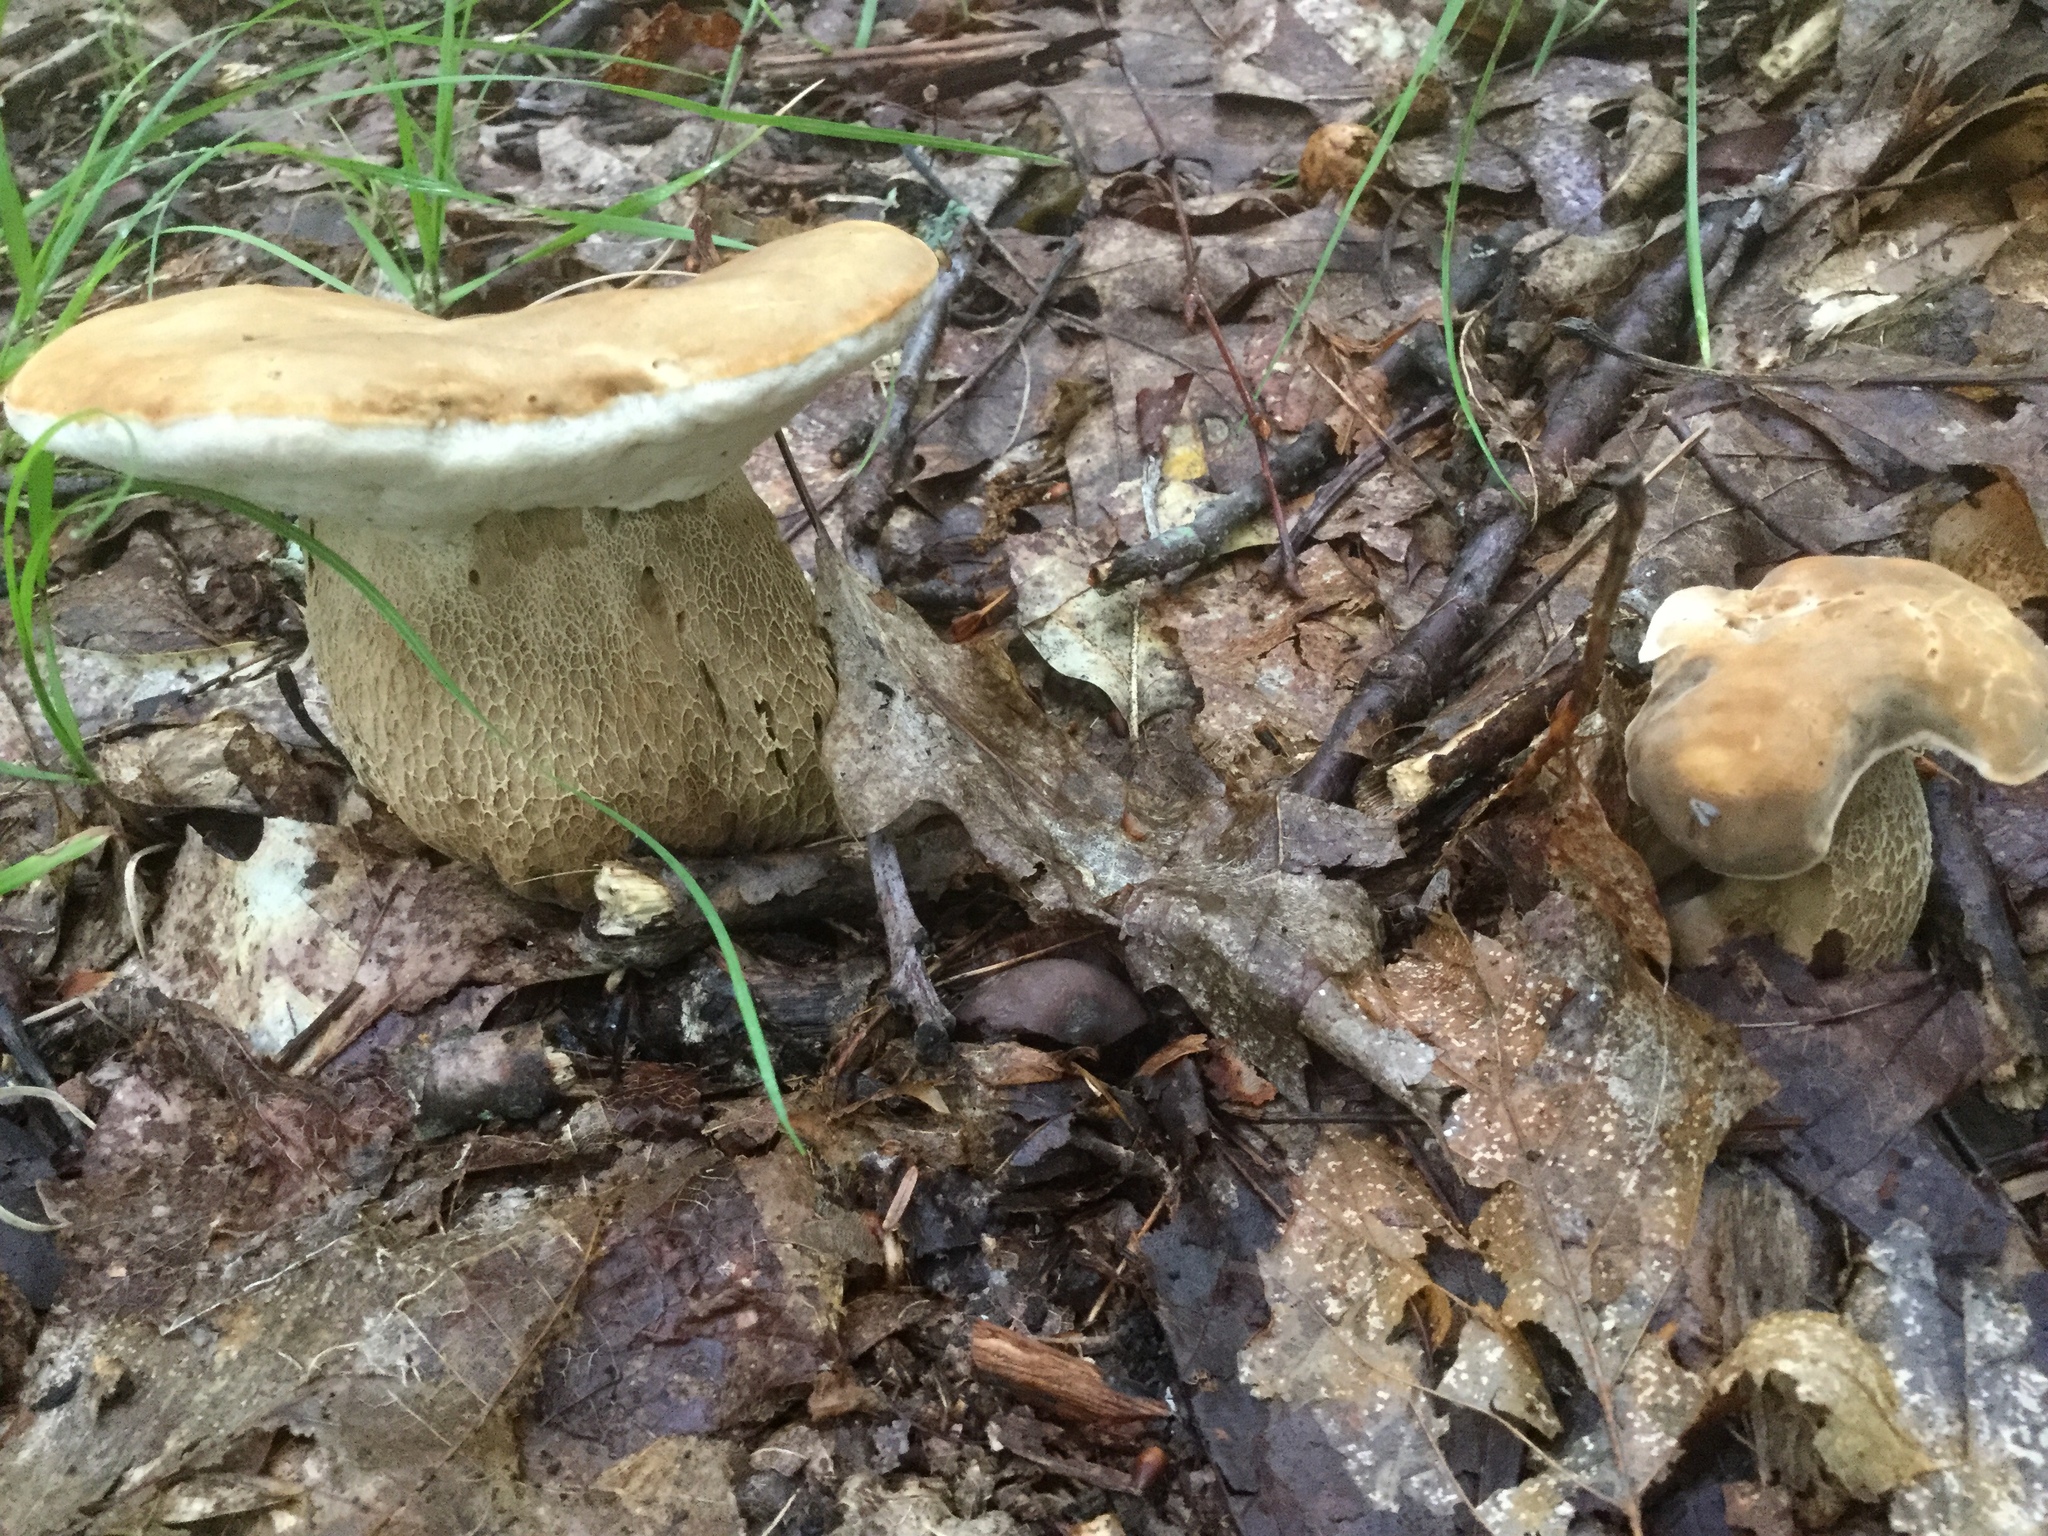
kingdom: Fungi
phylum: Basidiomycota
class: Agaricomycetes
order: Boletales
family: Boletaceae
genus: Boletus
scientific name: Boletus variipes
